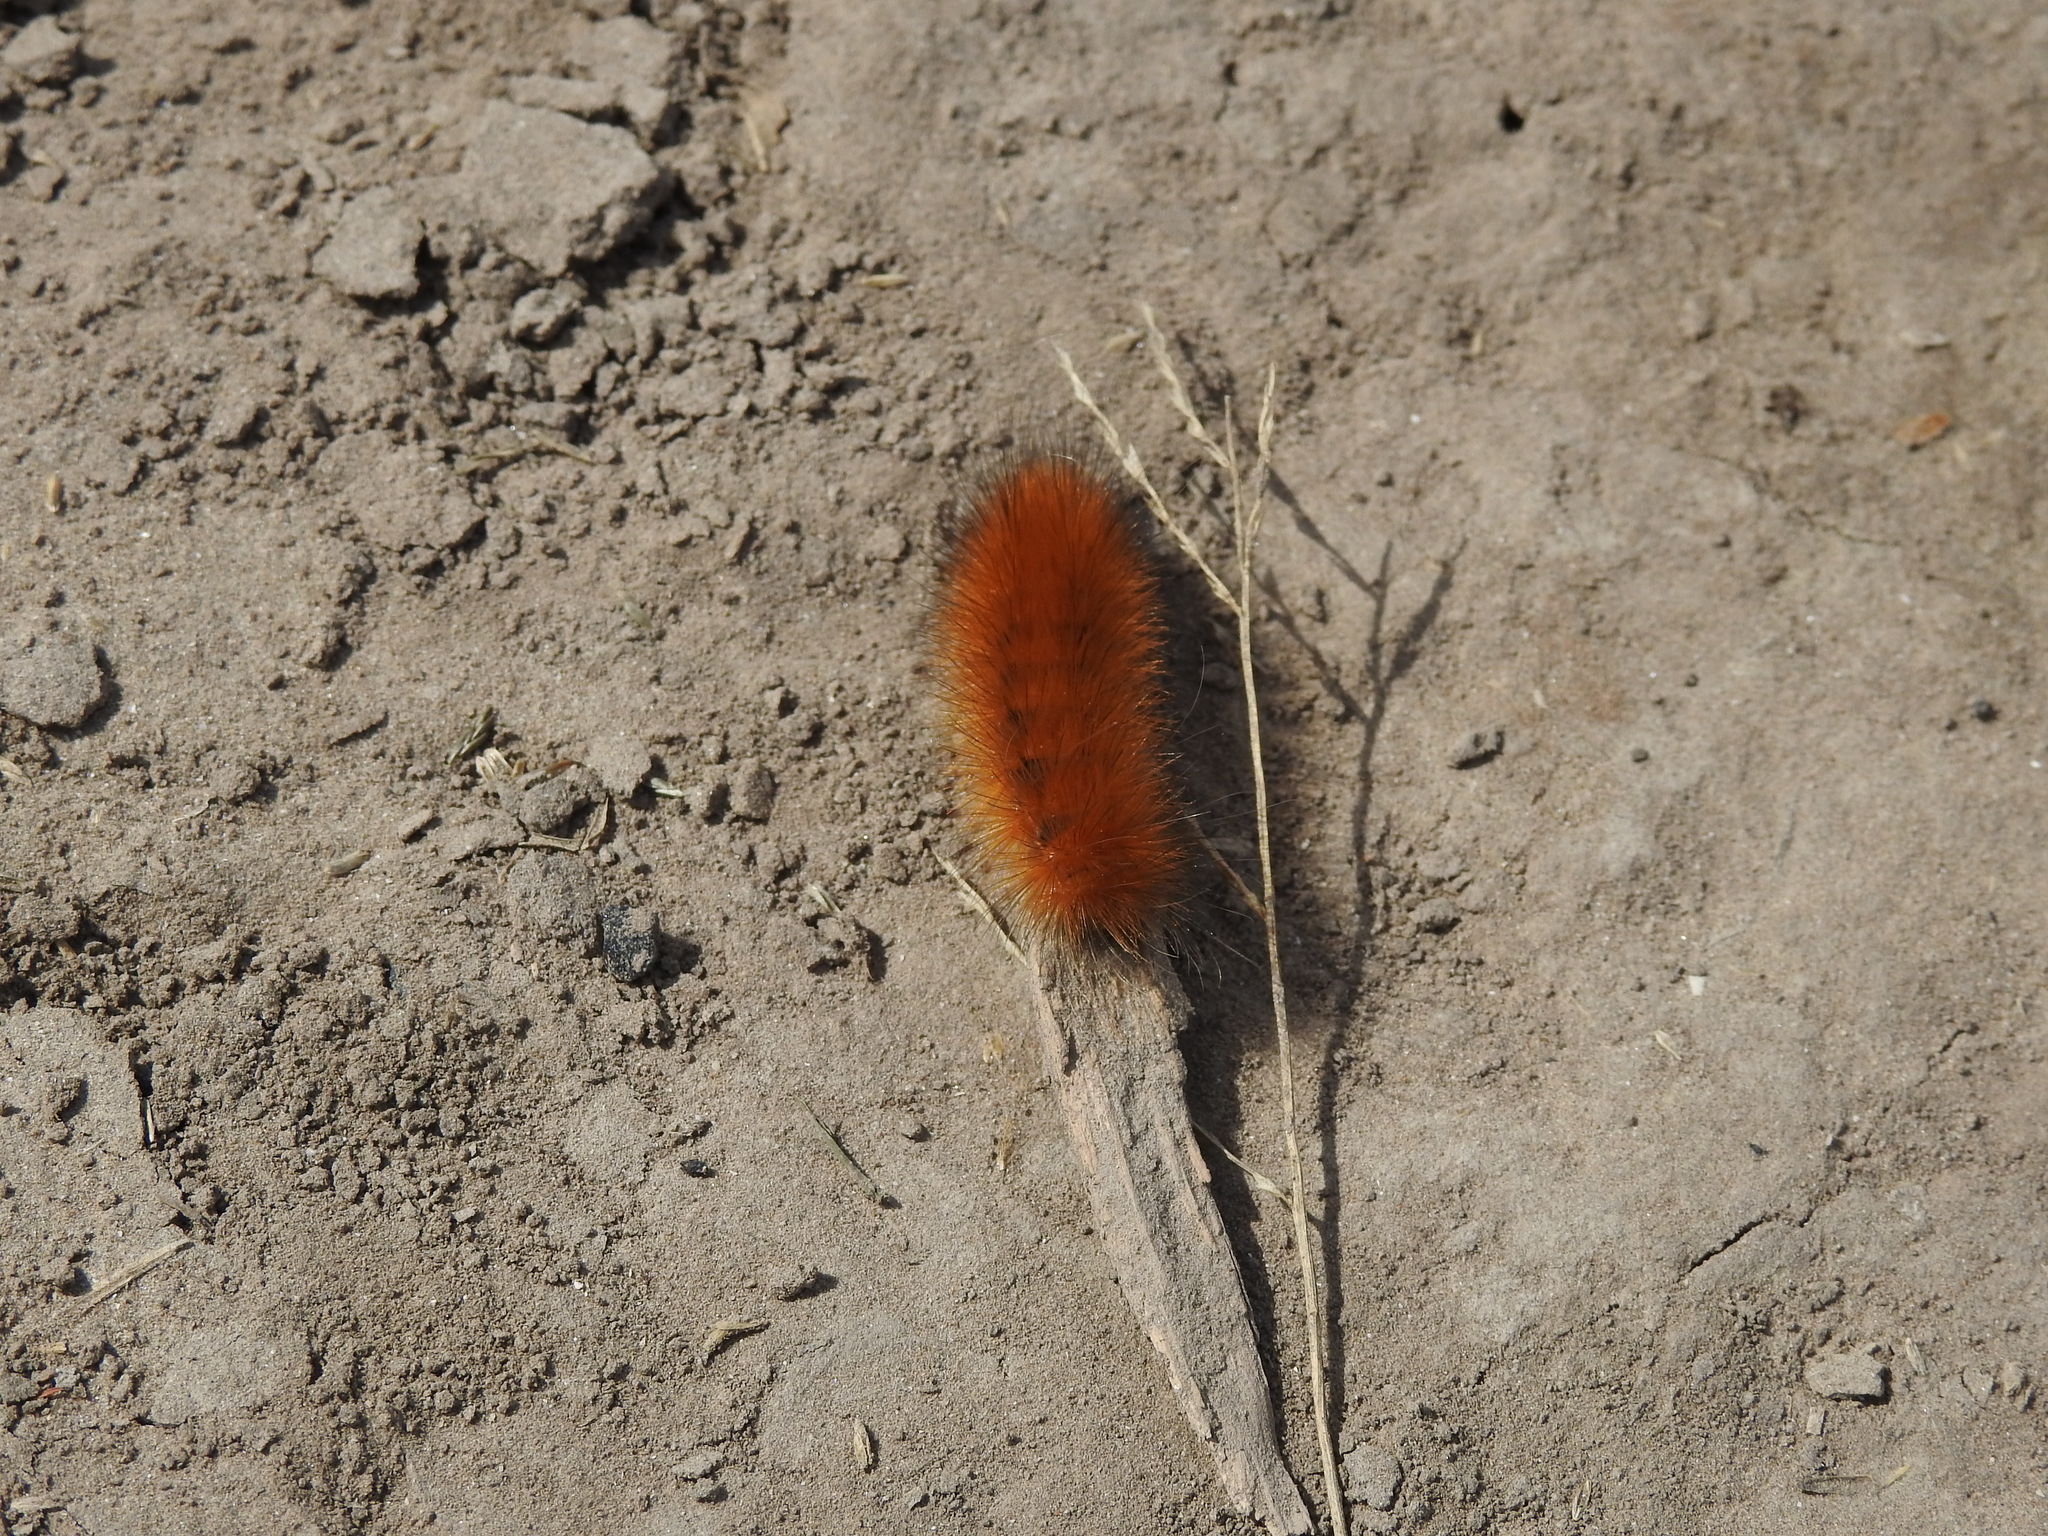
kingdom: Animalia
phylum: Arthropoda
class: Insecta
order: Lepidoptera
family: Erebidae
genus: Spilosoma
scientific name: Spilosoma virginica
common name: Virginia tiger moth
